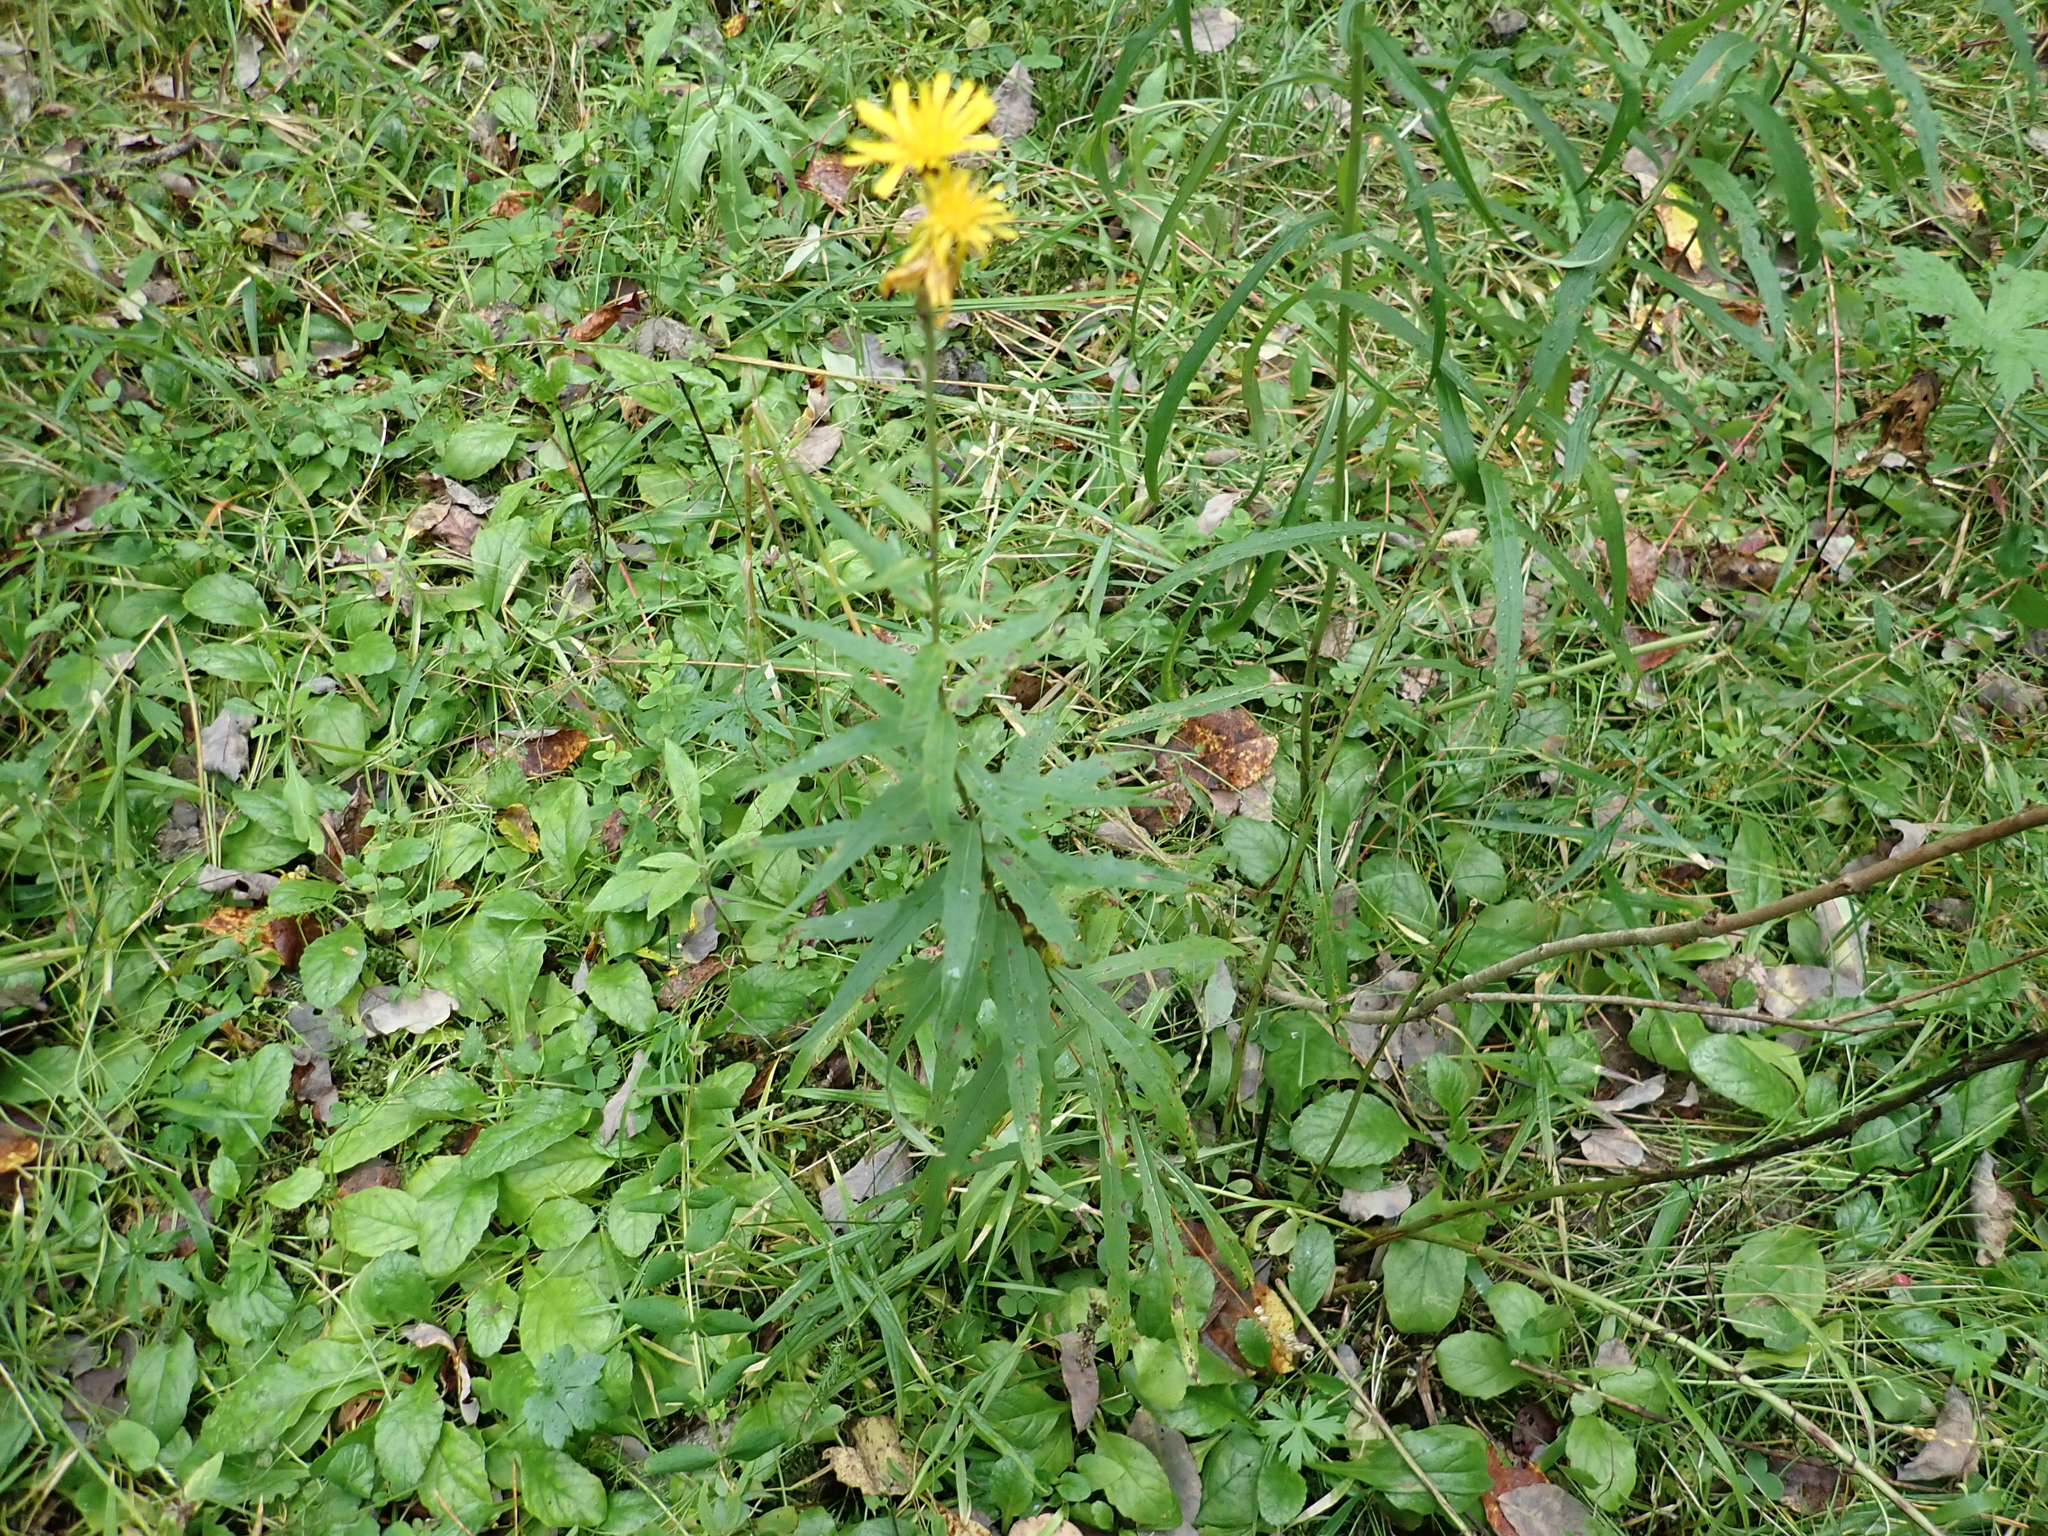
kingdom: Plantae
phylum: Tracheophyta
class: Magnoliopsida
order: Asterales
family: Asteraceae
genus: Hieracium
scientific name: Hieracium umbellatum
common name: Northern hawkweed
